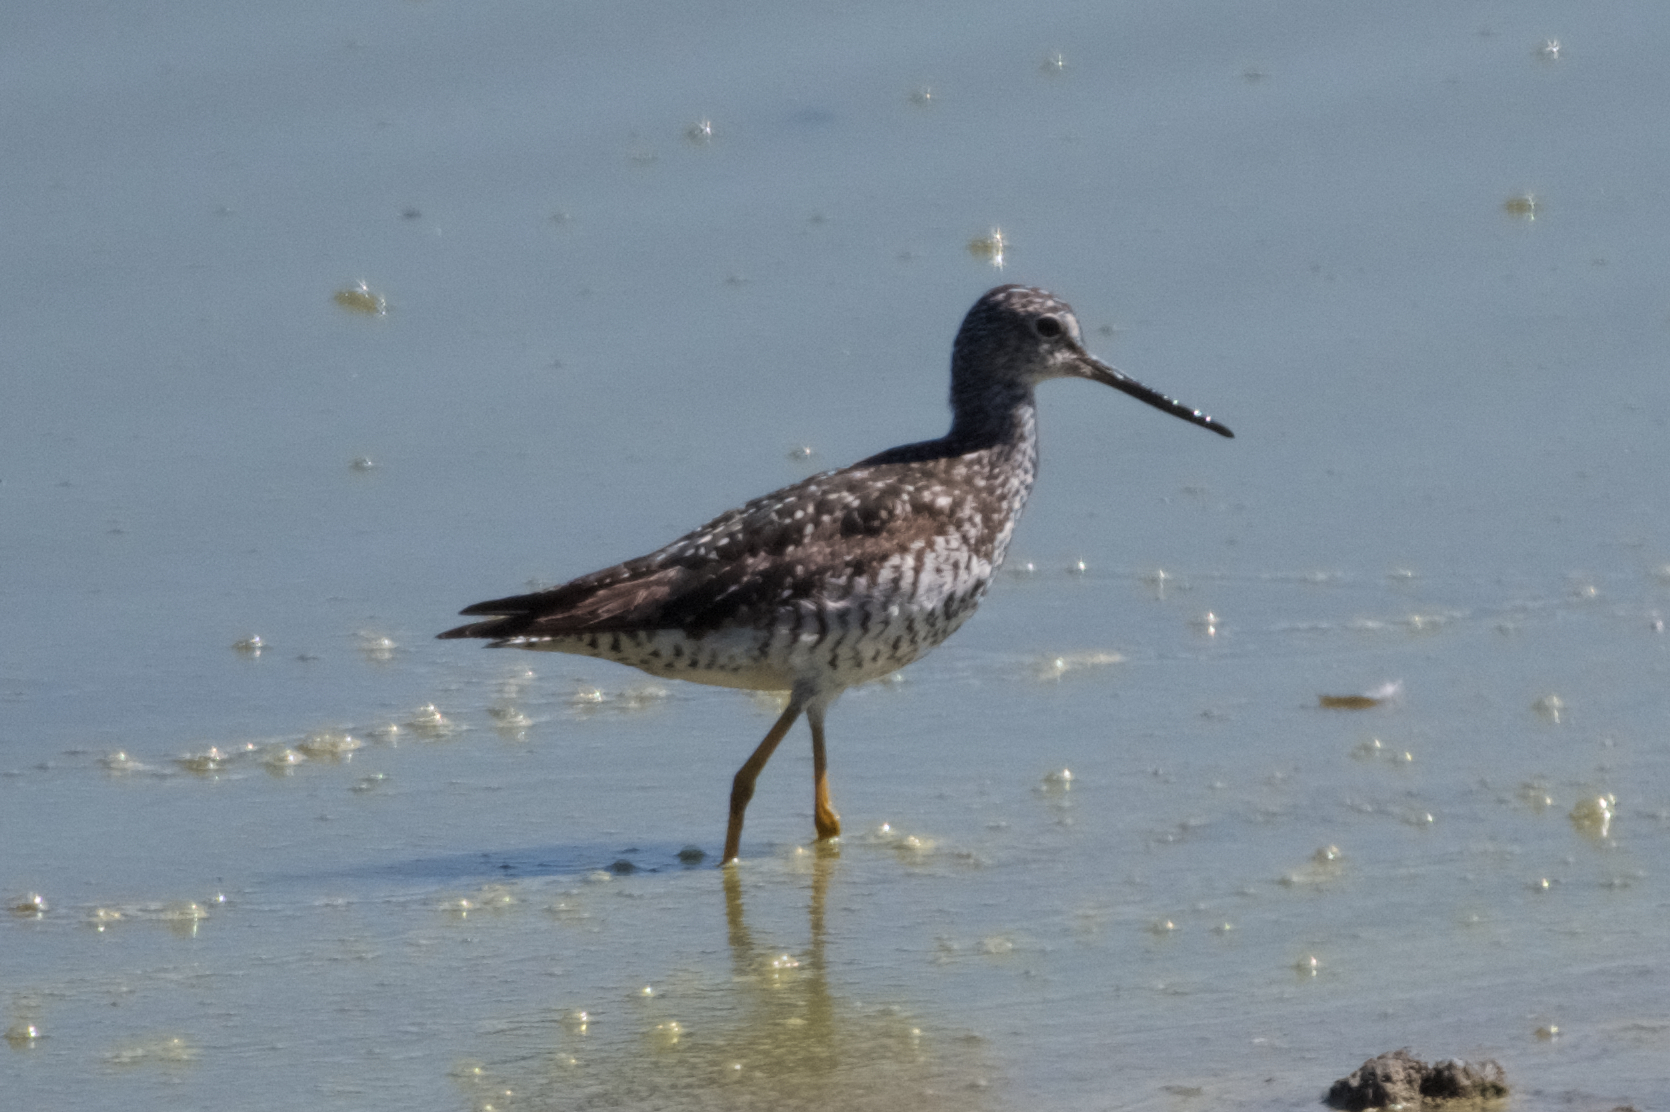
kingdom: Animalia
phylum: Chordata
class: Aves
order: Charadriiformes
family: Scolopacidae
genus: Tringa
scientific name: Tringa melanoleuca
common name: Greater yellowlegs
